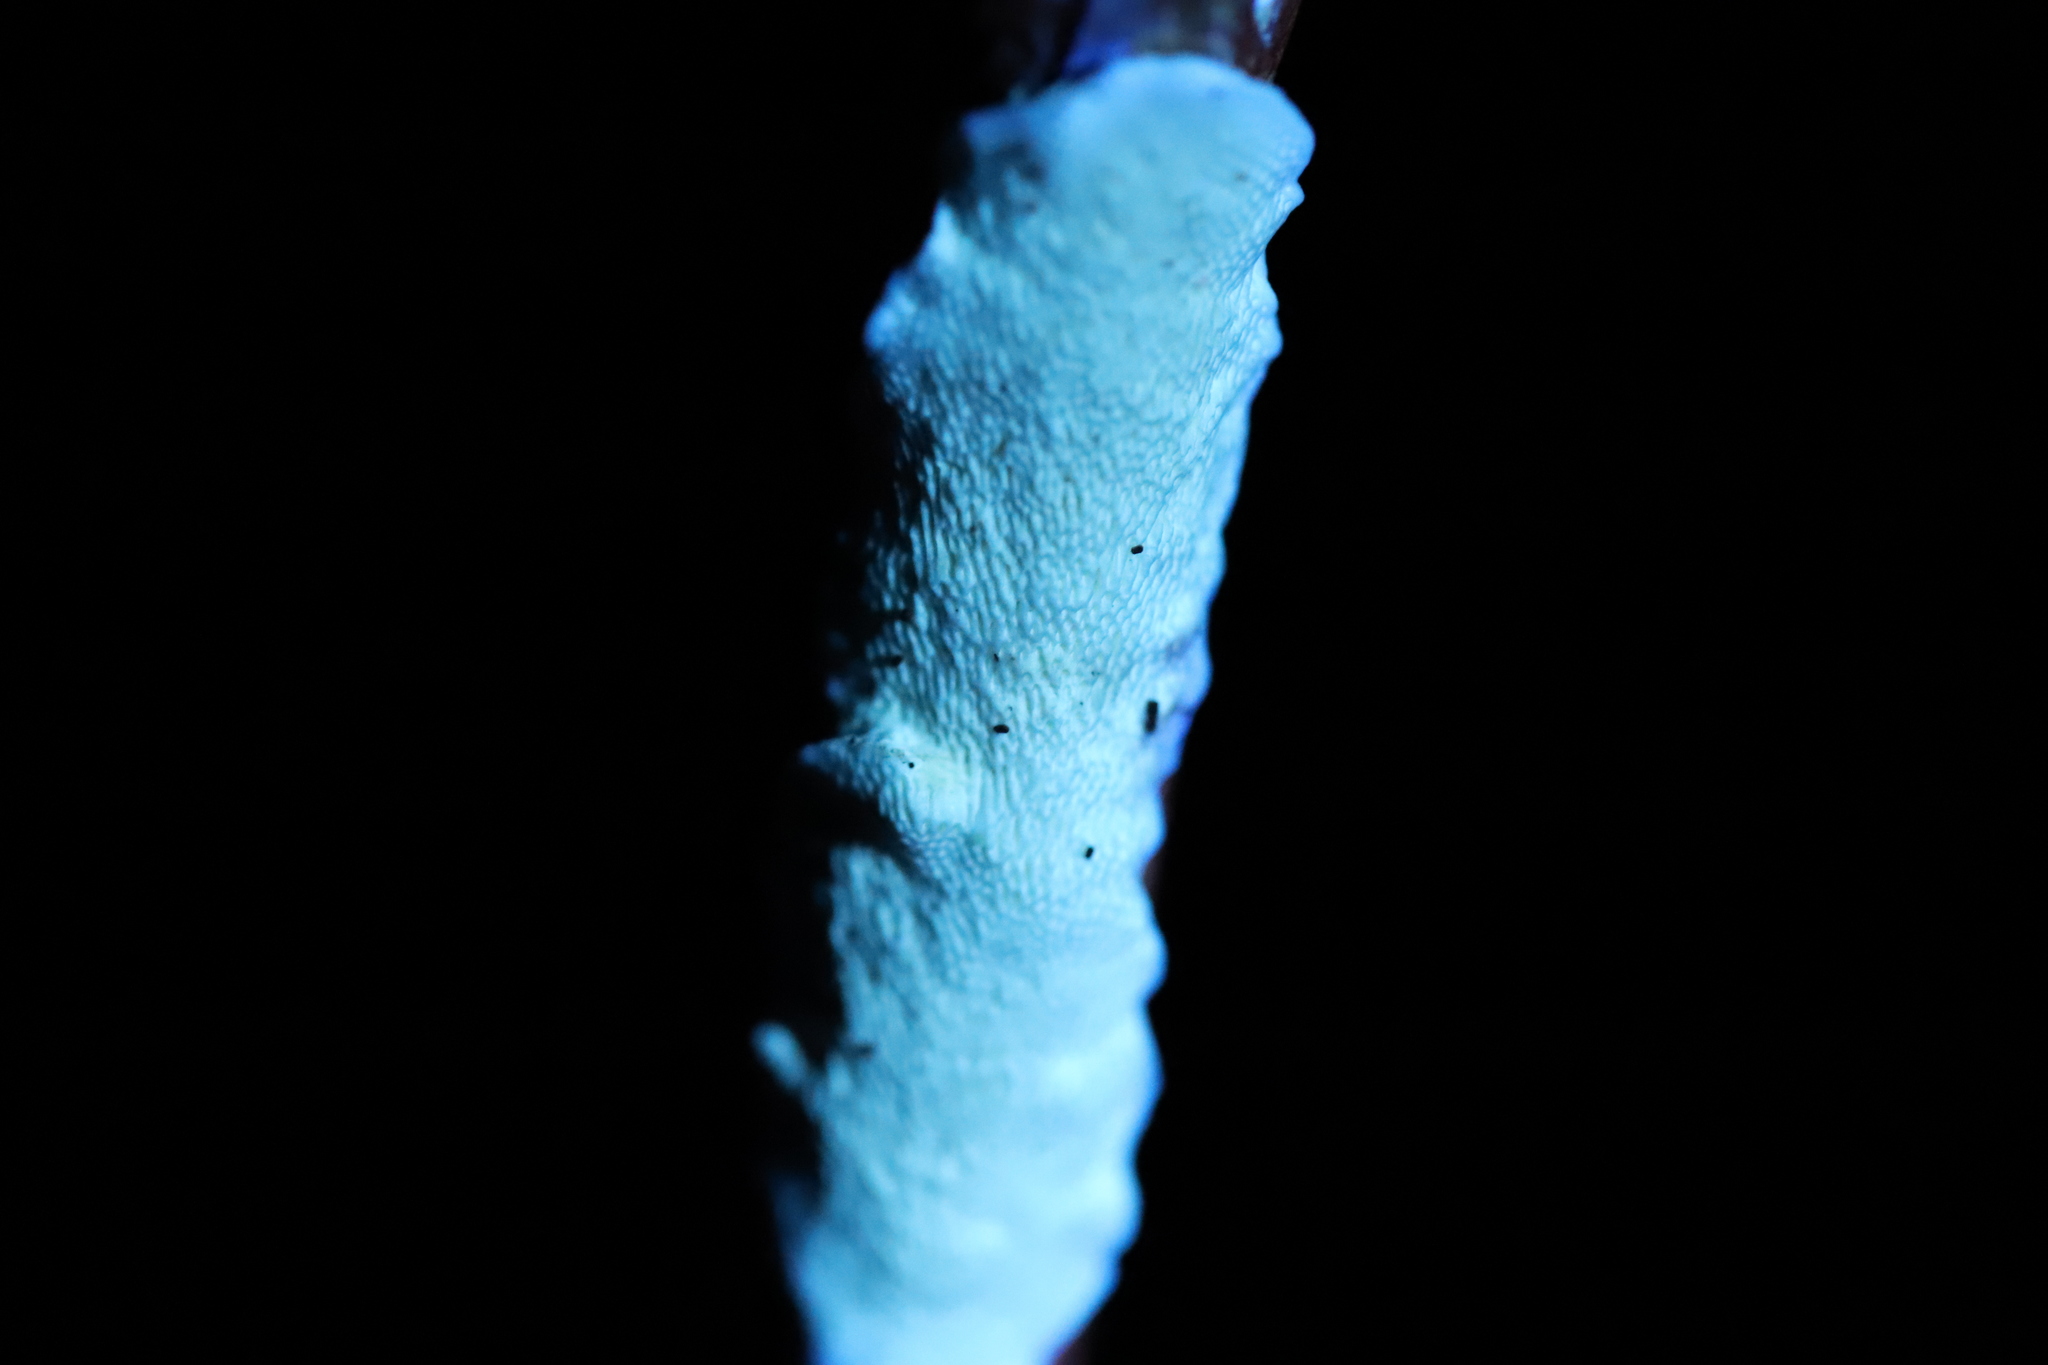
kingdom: Fungi
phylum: Basidiomycota
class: Agaricomycetes
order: Polyporales
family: Irpicaceae
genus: Byssomerulius
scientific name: Byssomerulius corium
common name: Netted crust
